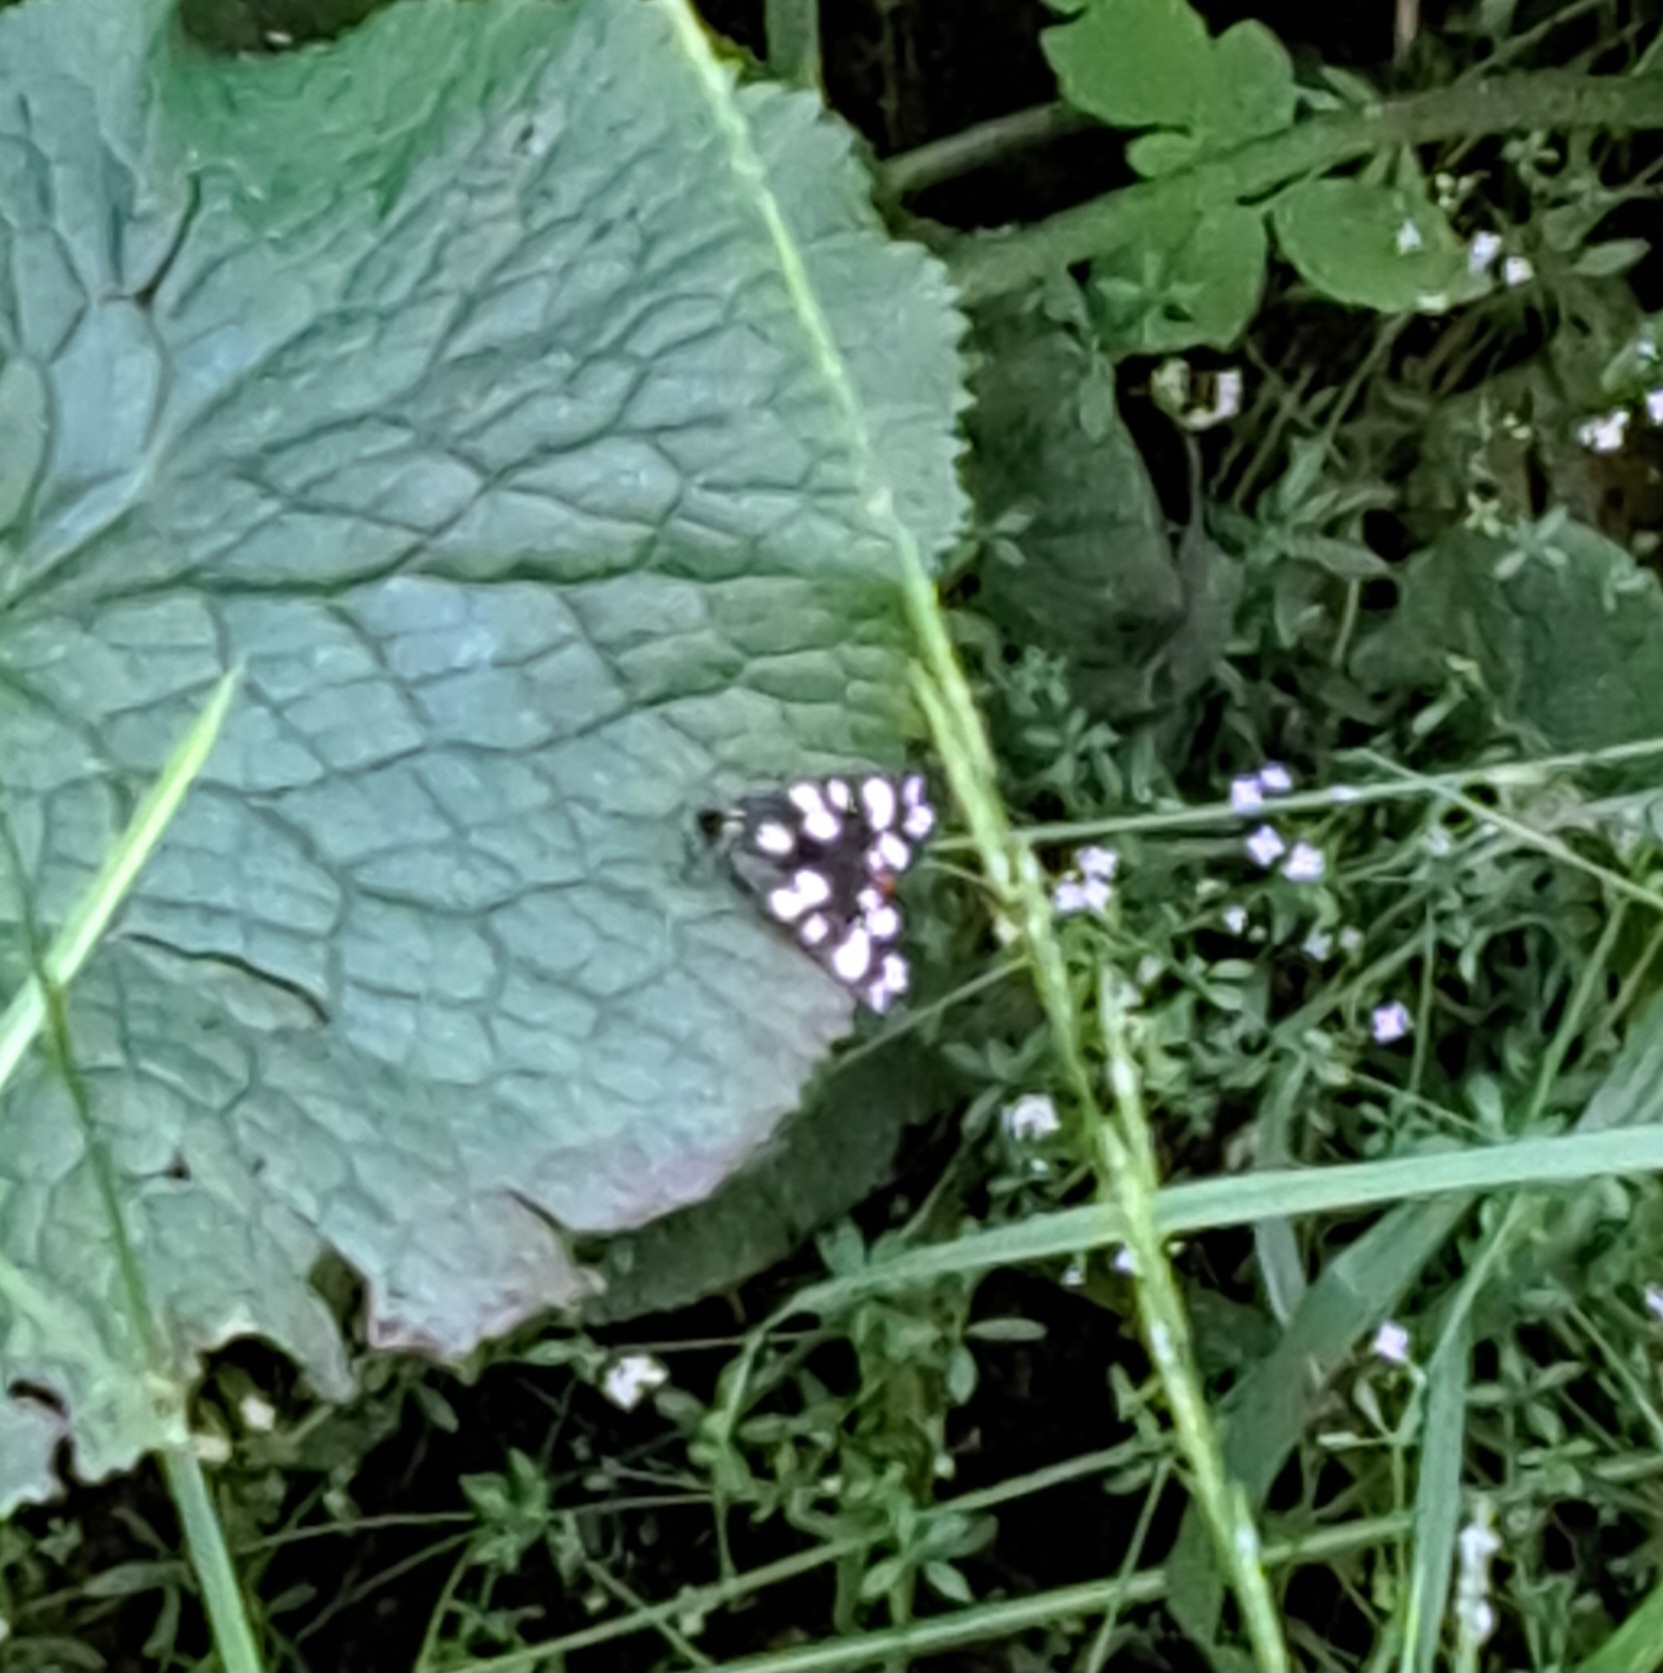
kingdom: Animalia
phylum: Arthropoda
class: Insecta
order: Lepidoptera
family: Erebidae
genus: Callimorpha
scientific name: Callimorpha dominula
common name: Scarlet tiger
